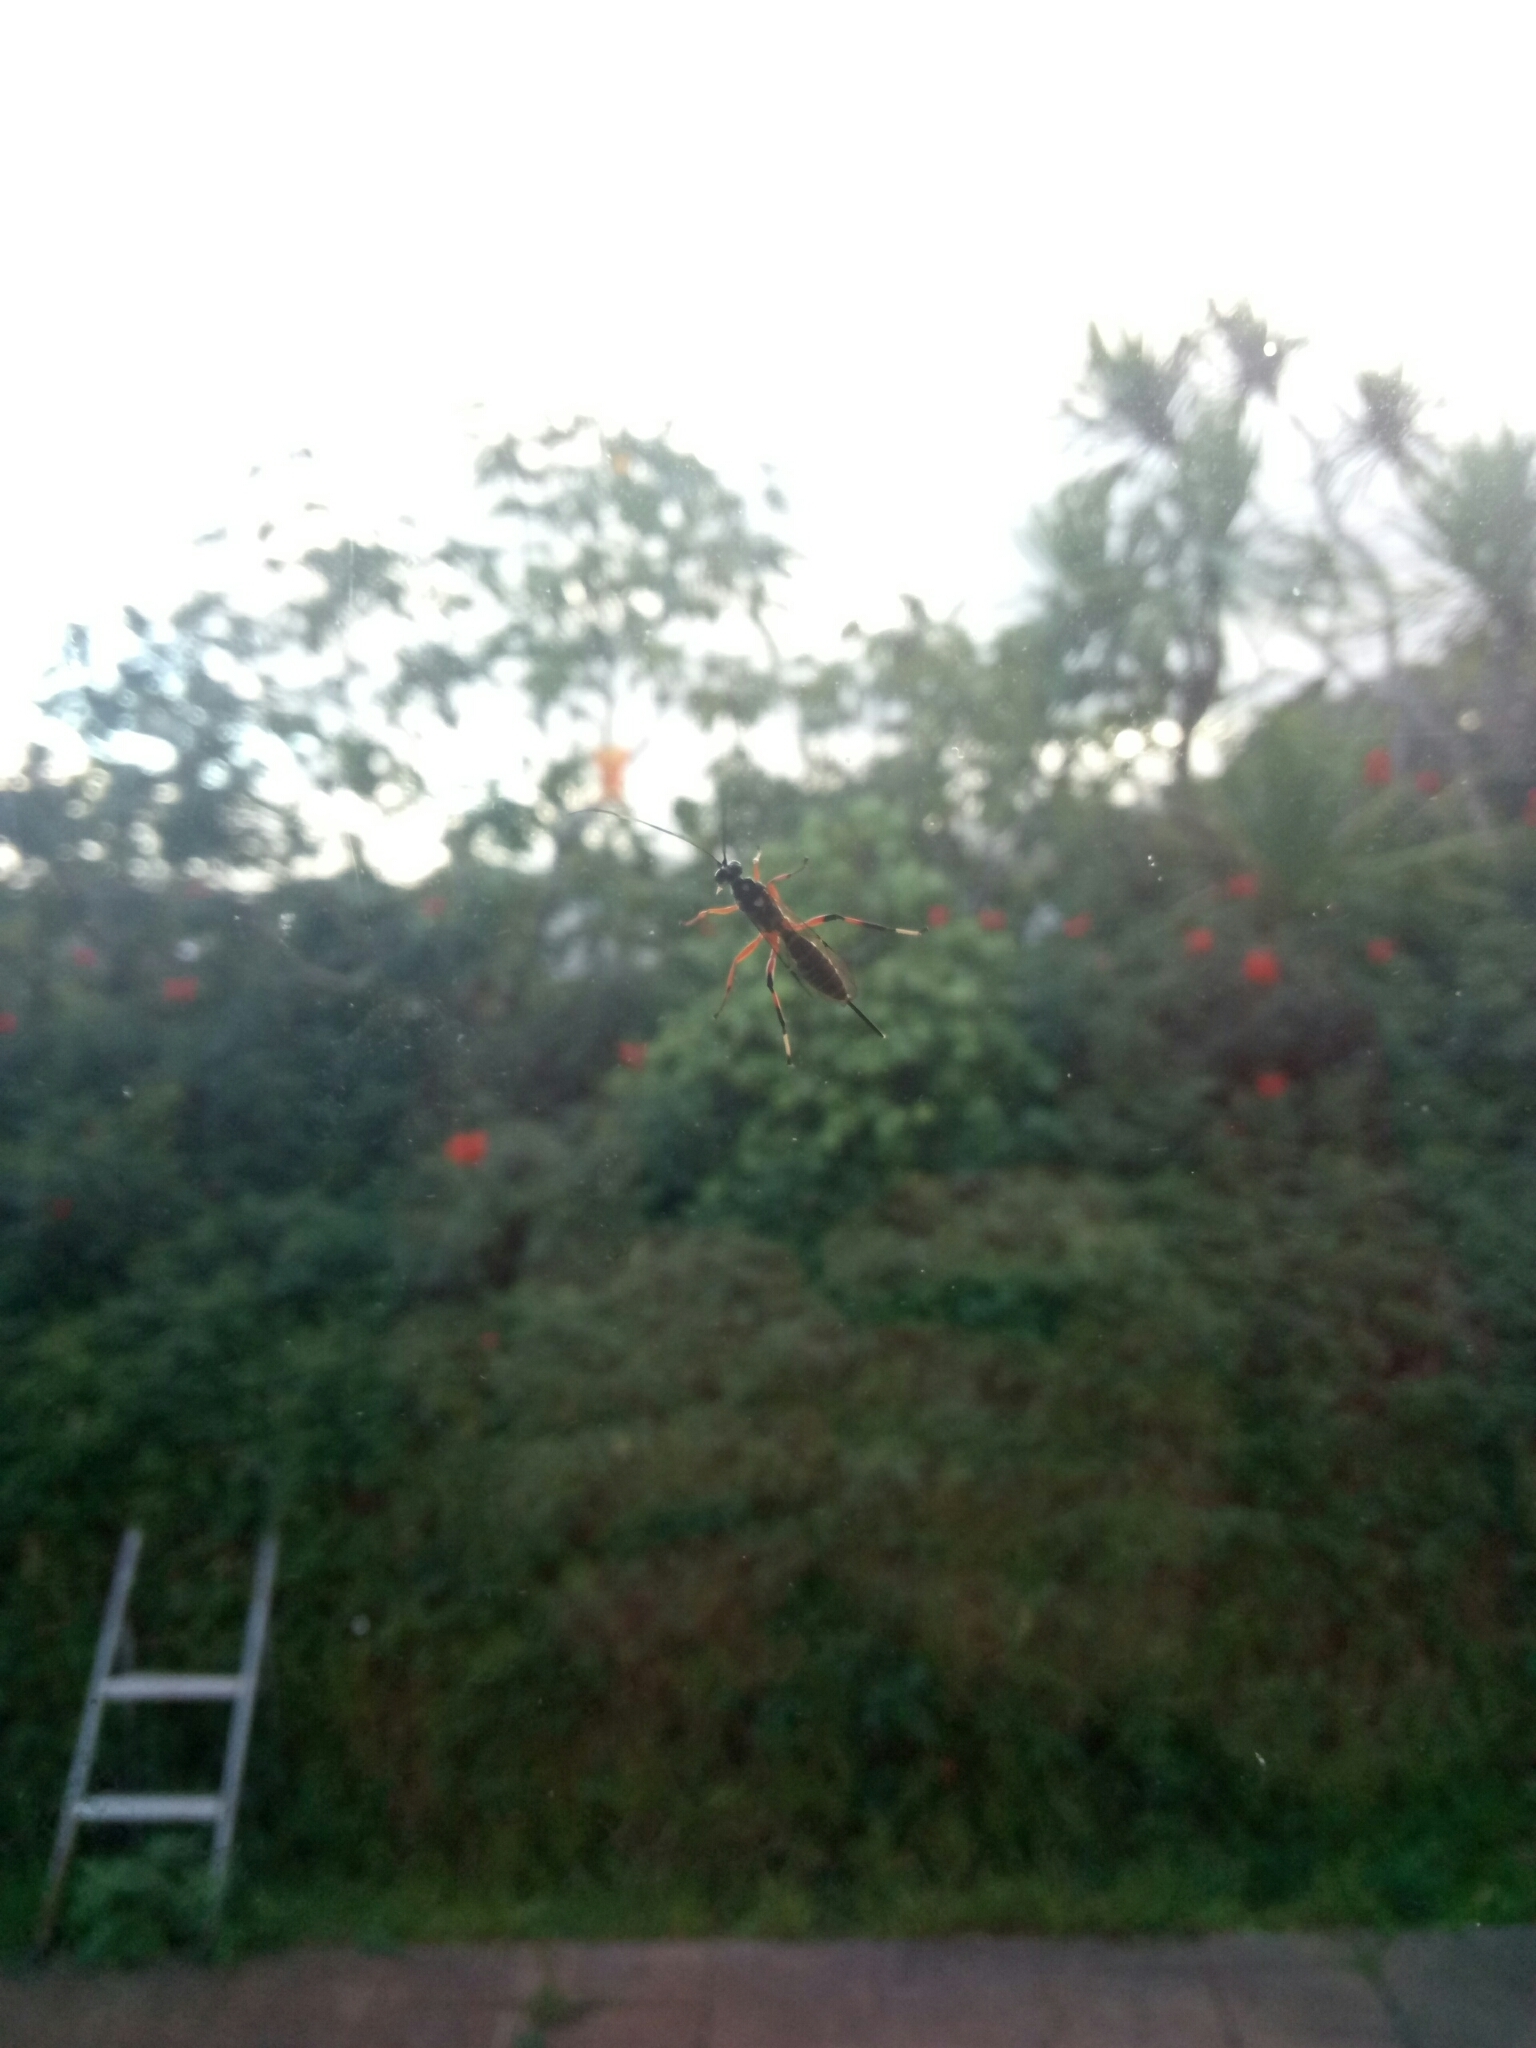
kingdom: Animalia
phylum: Arthropoda
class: Insecta
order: Hymenoptera
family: Ichneumonidae
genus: Xanthocryptus
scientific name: Xanthocryptus novozealandicus
